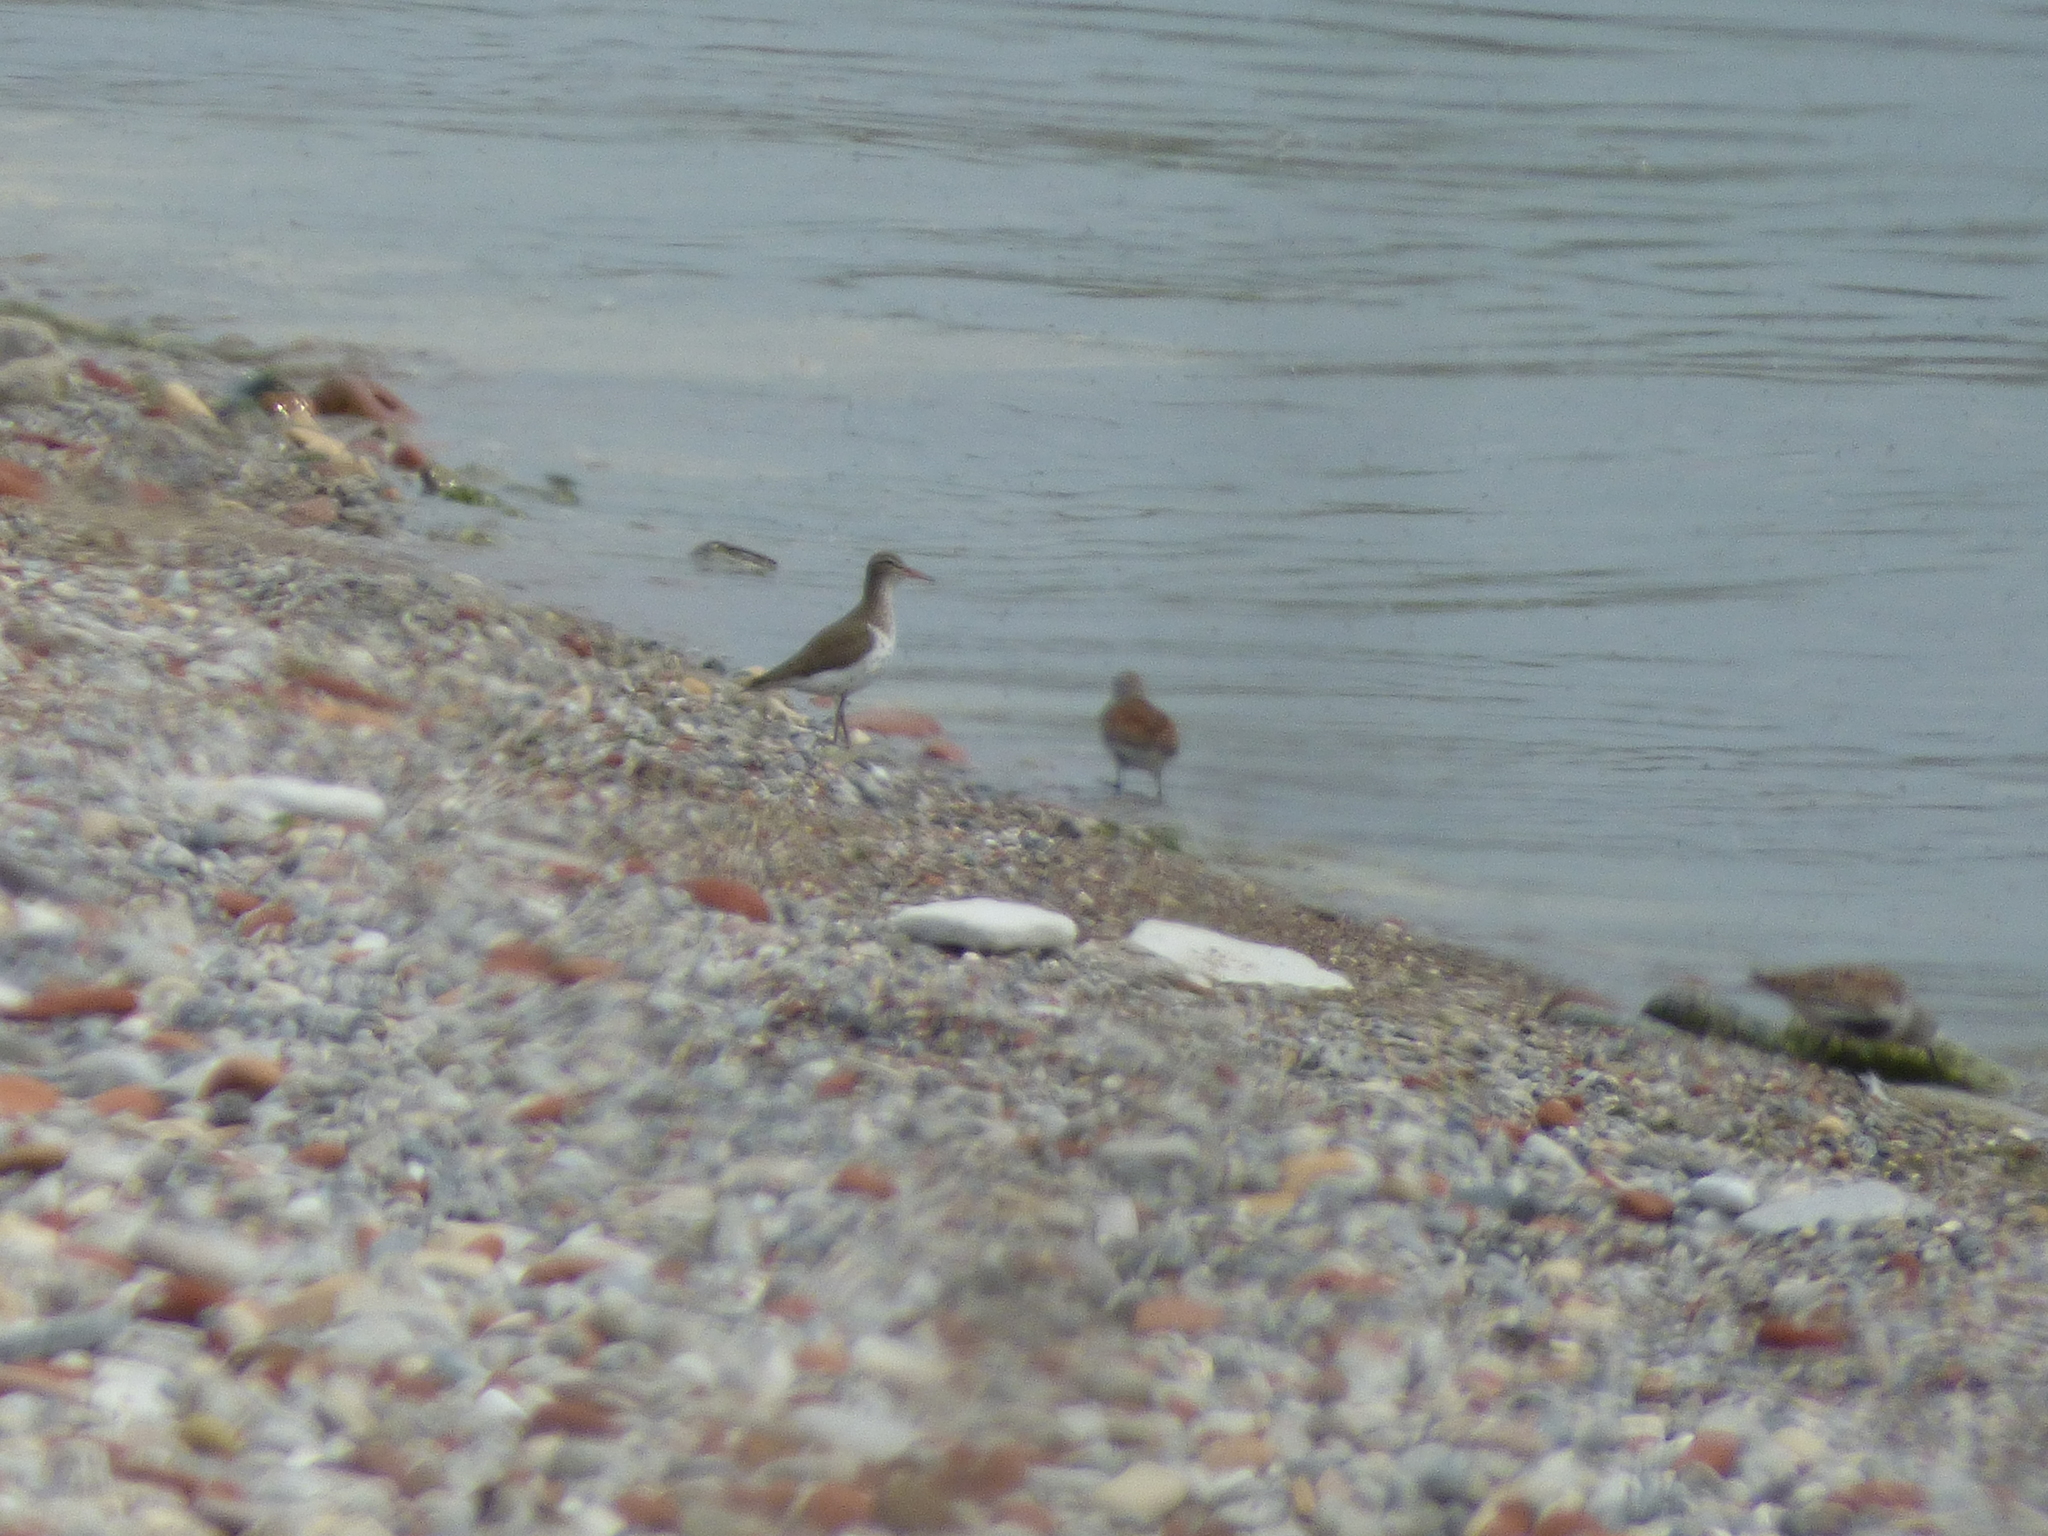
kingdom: Animalia
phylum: Chordata
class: Aves
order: Charadriiformes
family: Scolopacidae
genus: Actitis
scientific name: Actitis macularius
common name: Spotted sandpiper
